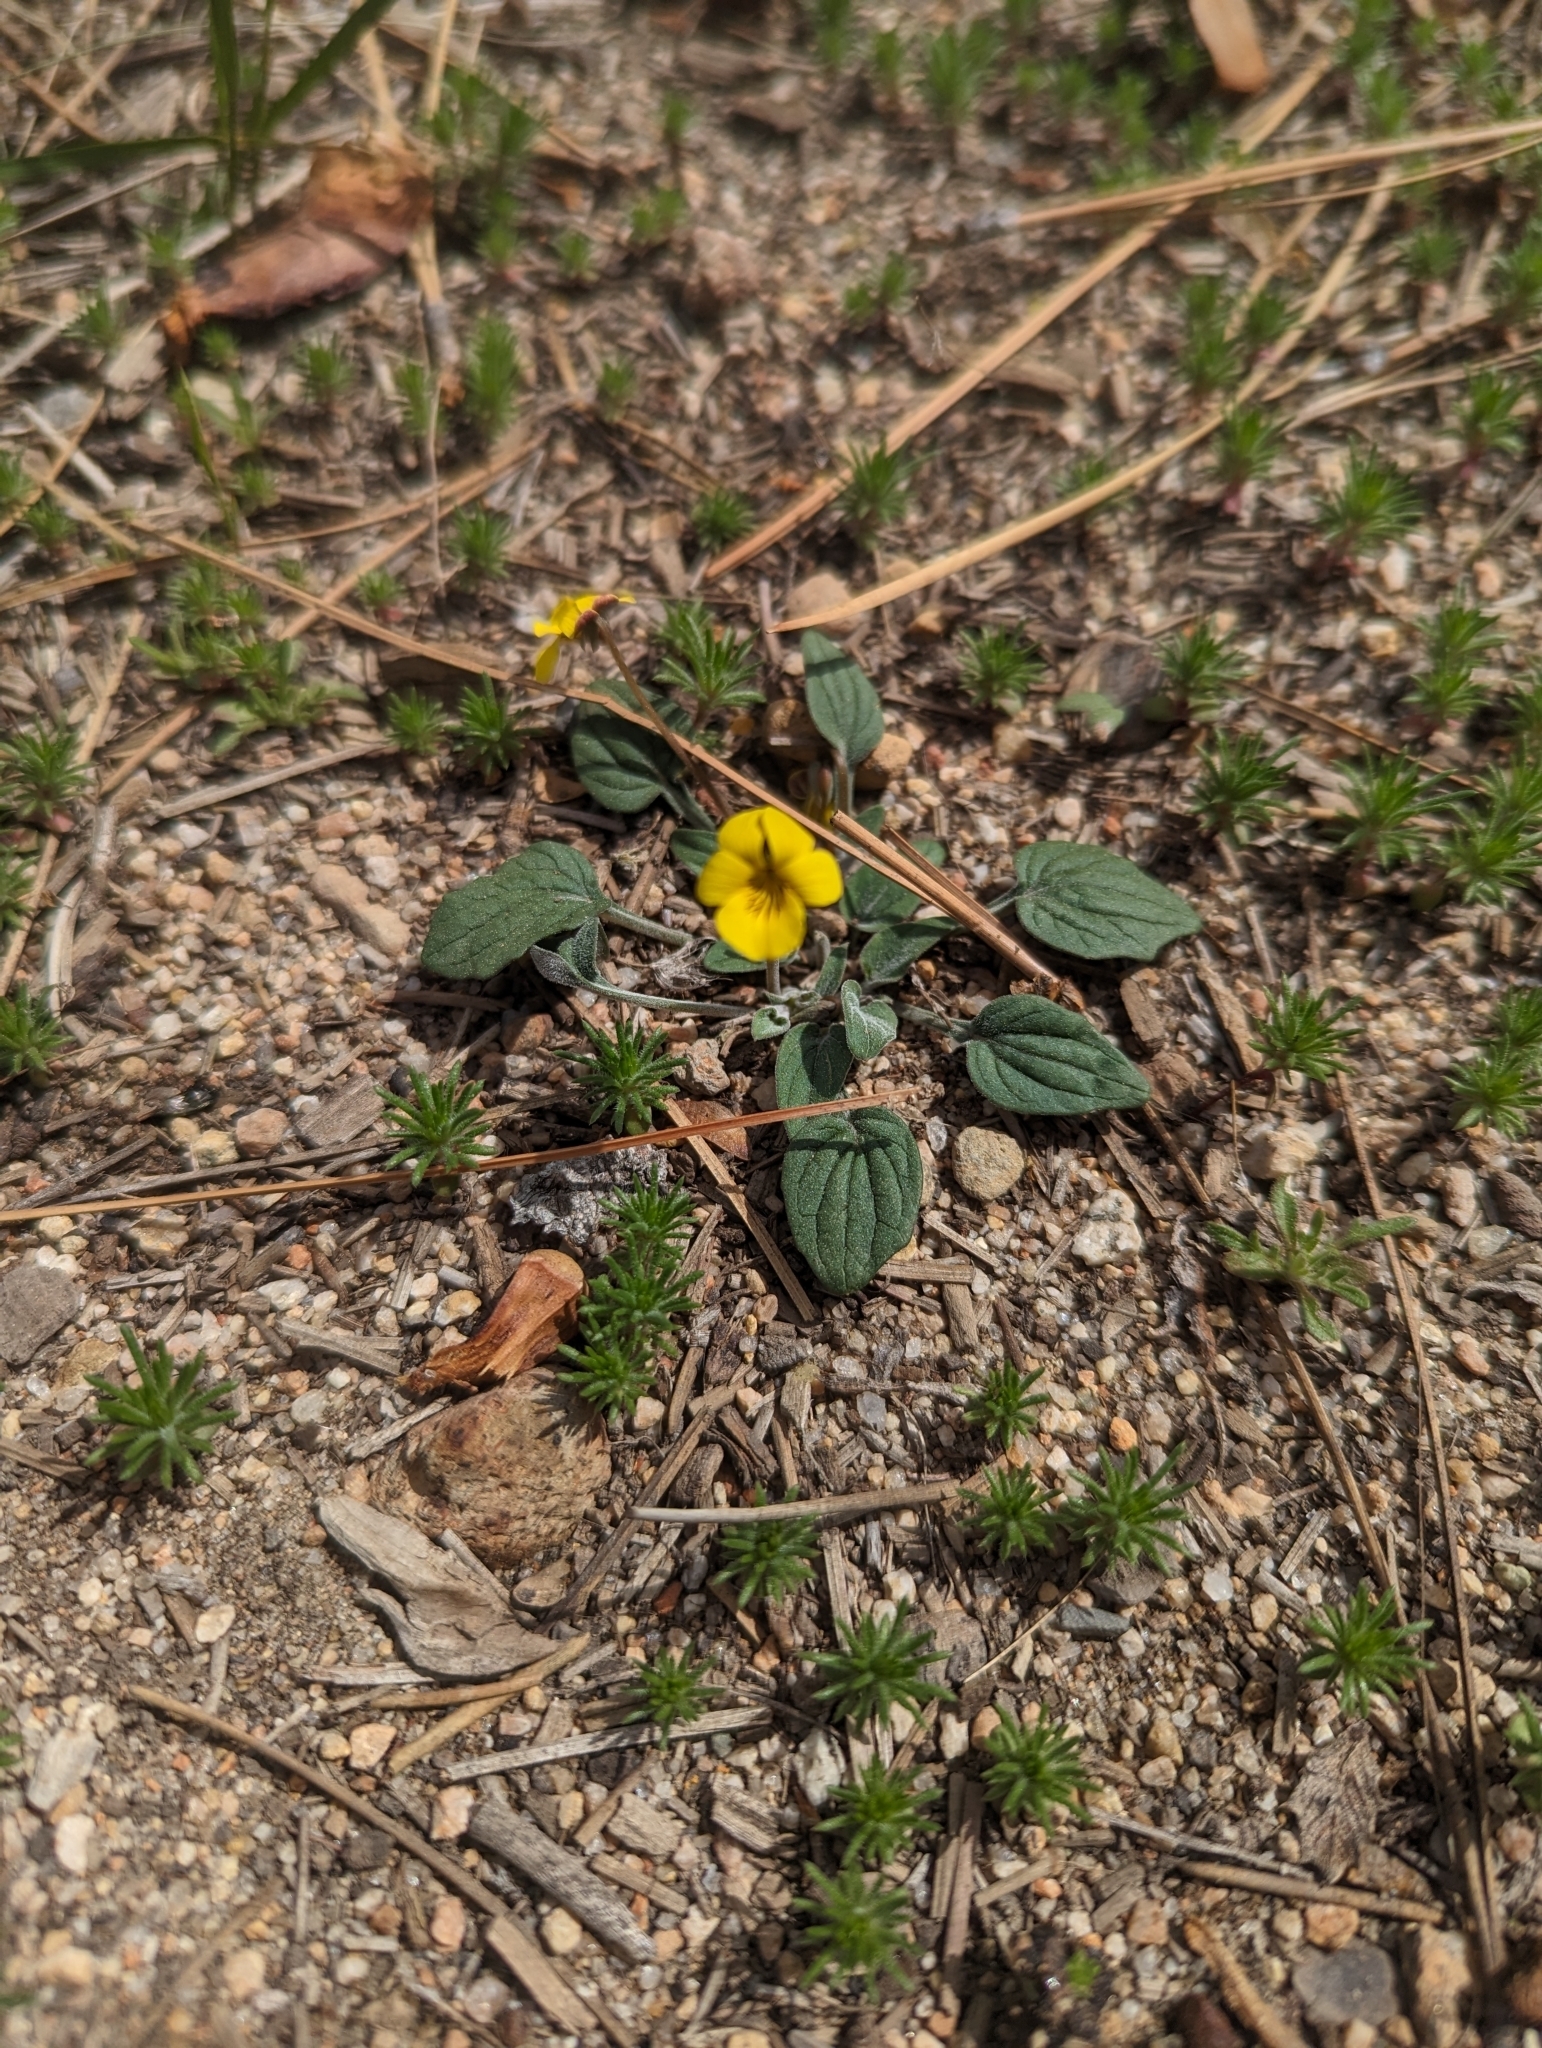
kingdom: Plantae
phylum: Tracheophyta
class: Magnoliopsida
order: Malpighiales
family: Violaceae
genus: Viola
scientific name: Viola purpurea
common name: Pine violet
